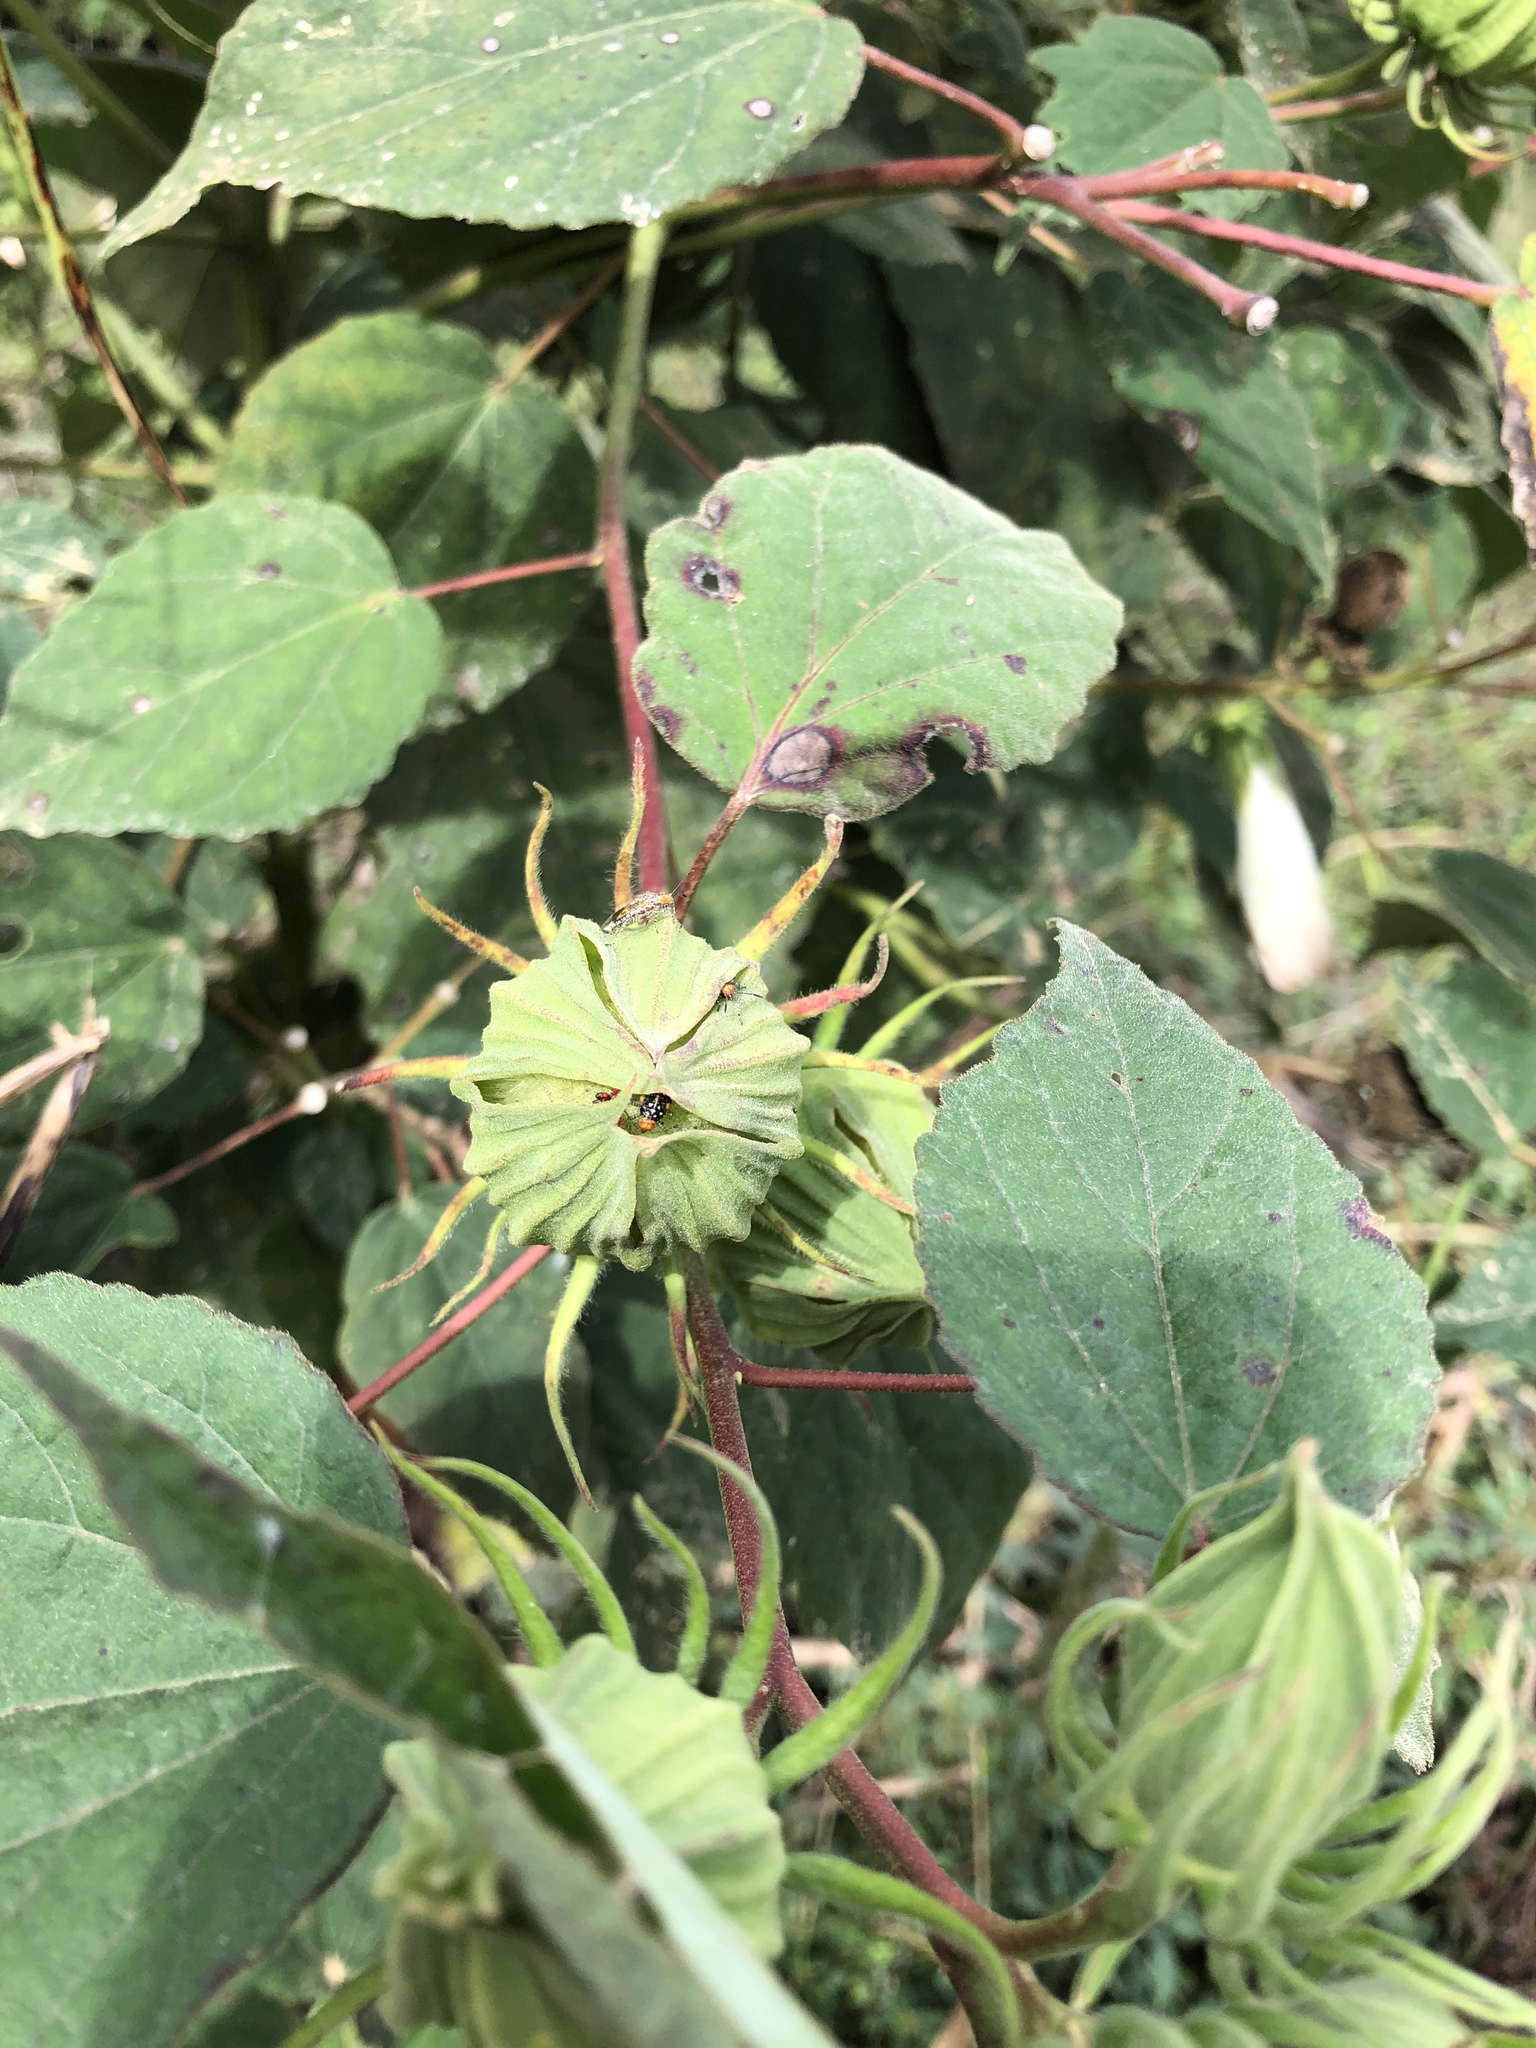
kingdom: Plantae
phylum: Tracheophyta
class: Magnoliopsida
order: Malvales
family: Malvaceae
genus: Hibiscus
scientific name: Hibiscus moscheutos
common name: Common rose-mallow
